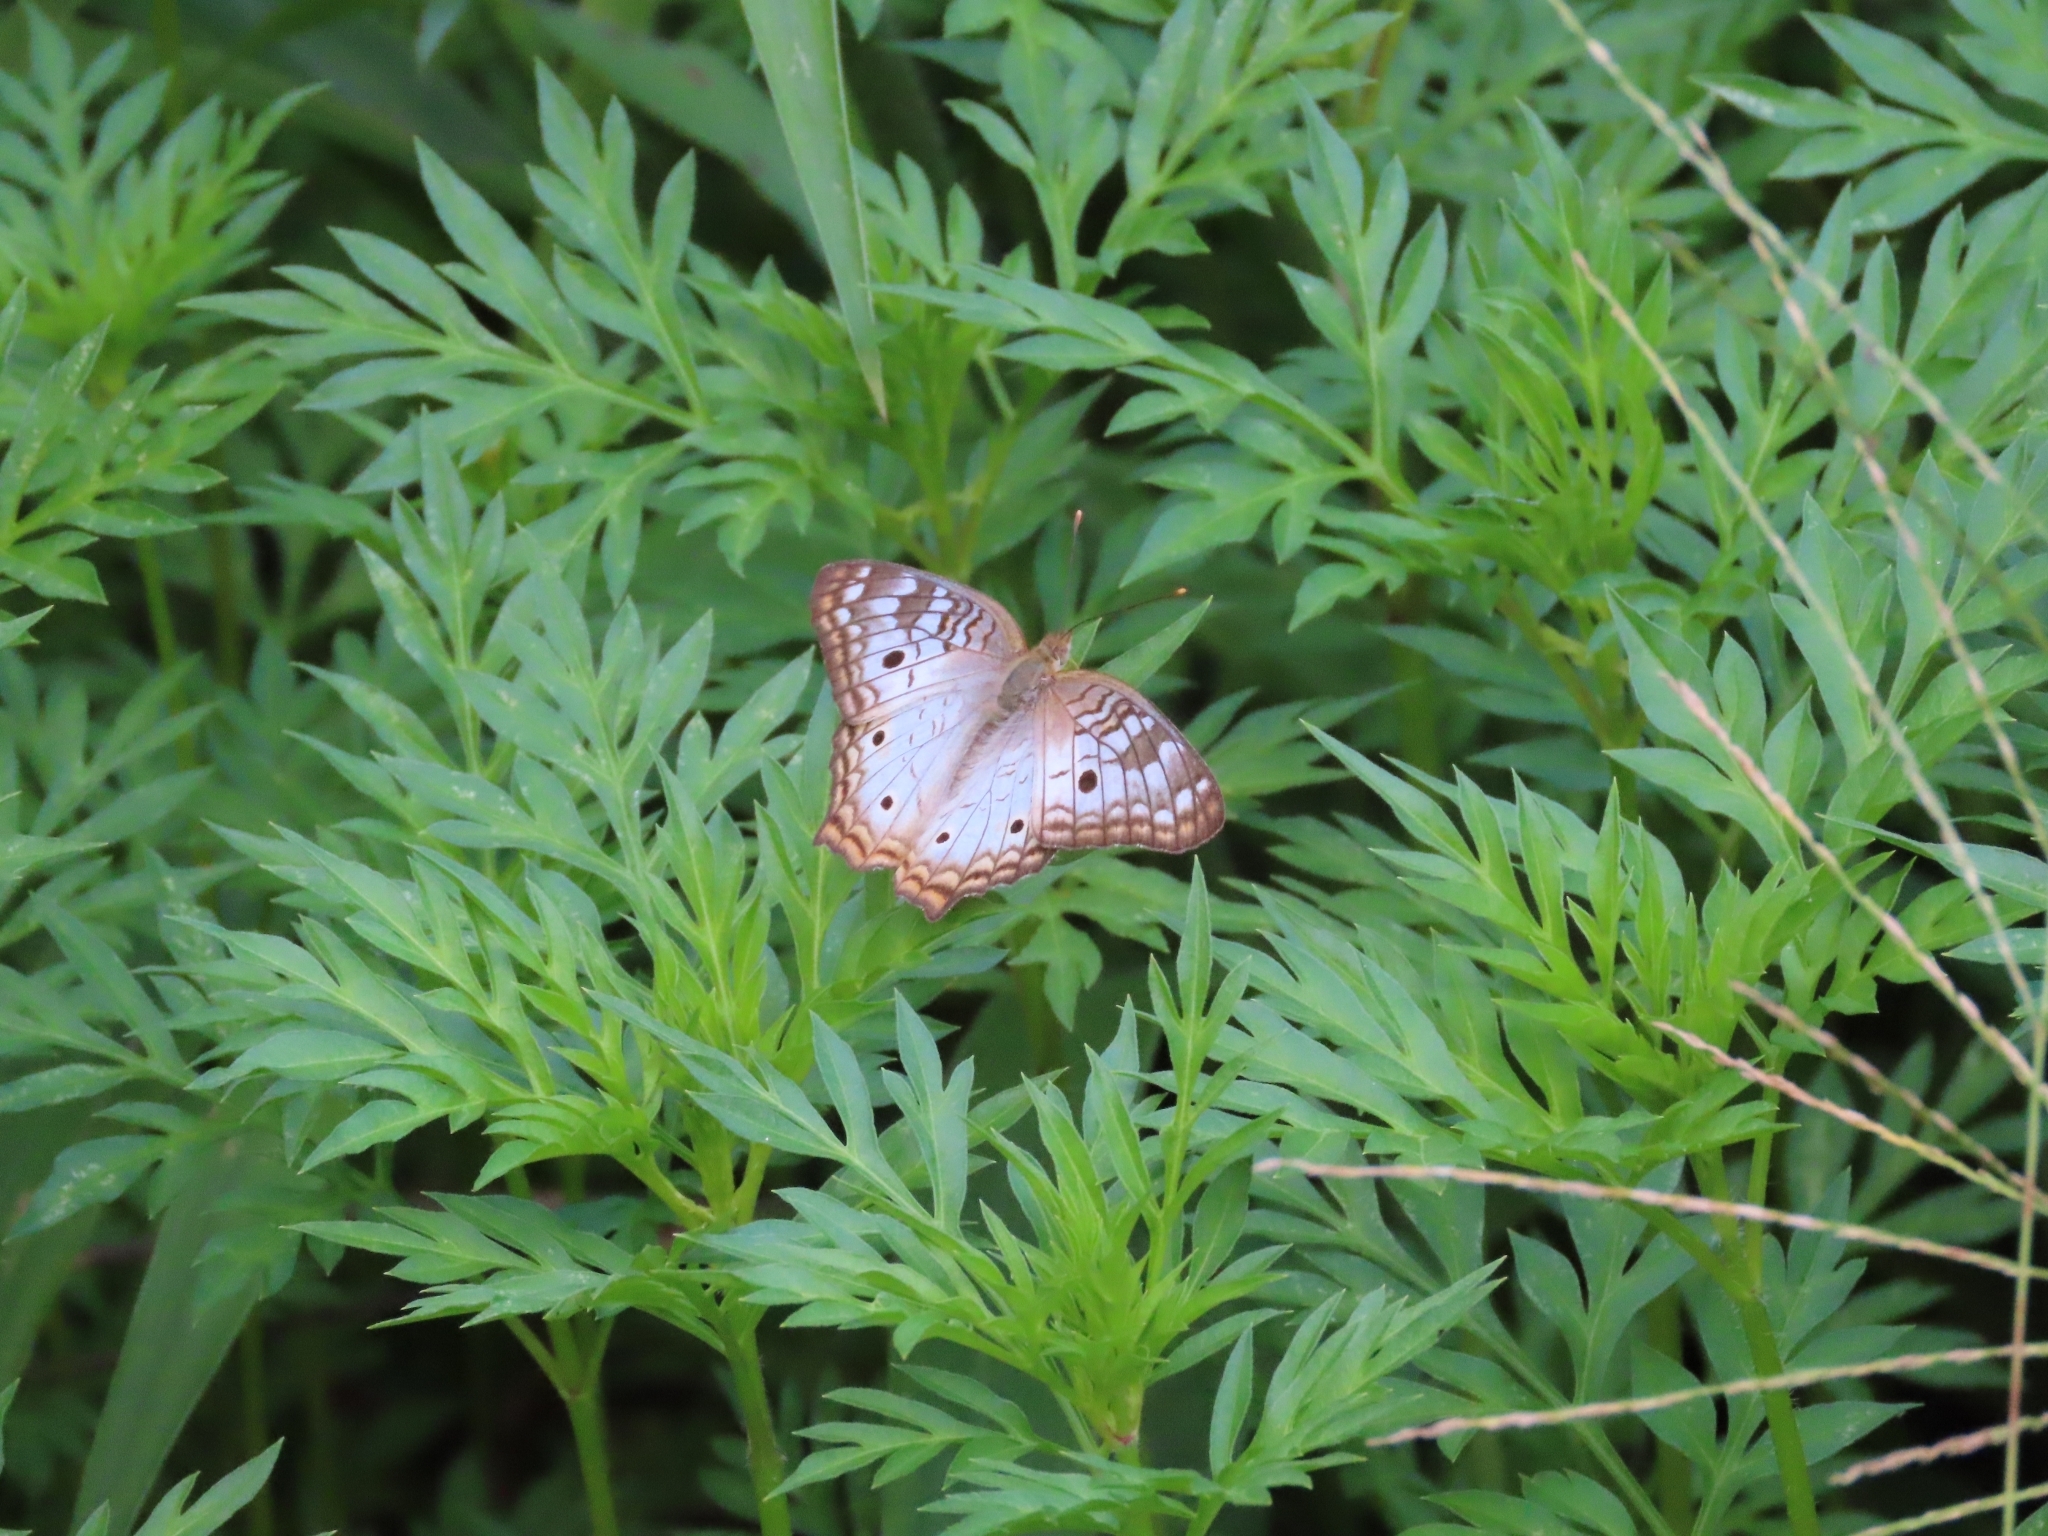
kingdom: Animalia
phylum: Arthropoda
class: Insecta
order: Lepidoptera
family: Nymphalidae
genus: Anartia
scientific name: Anartia jatrophae
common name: White peacock
